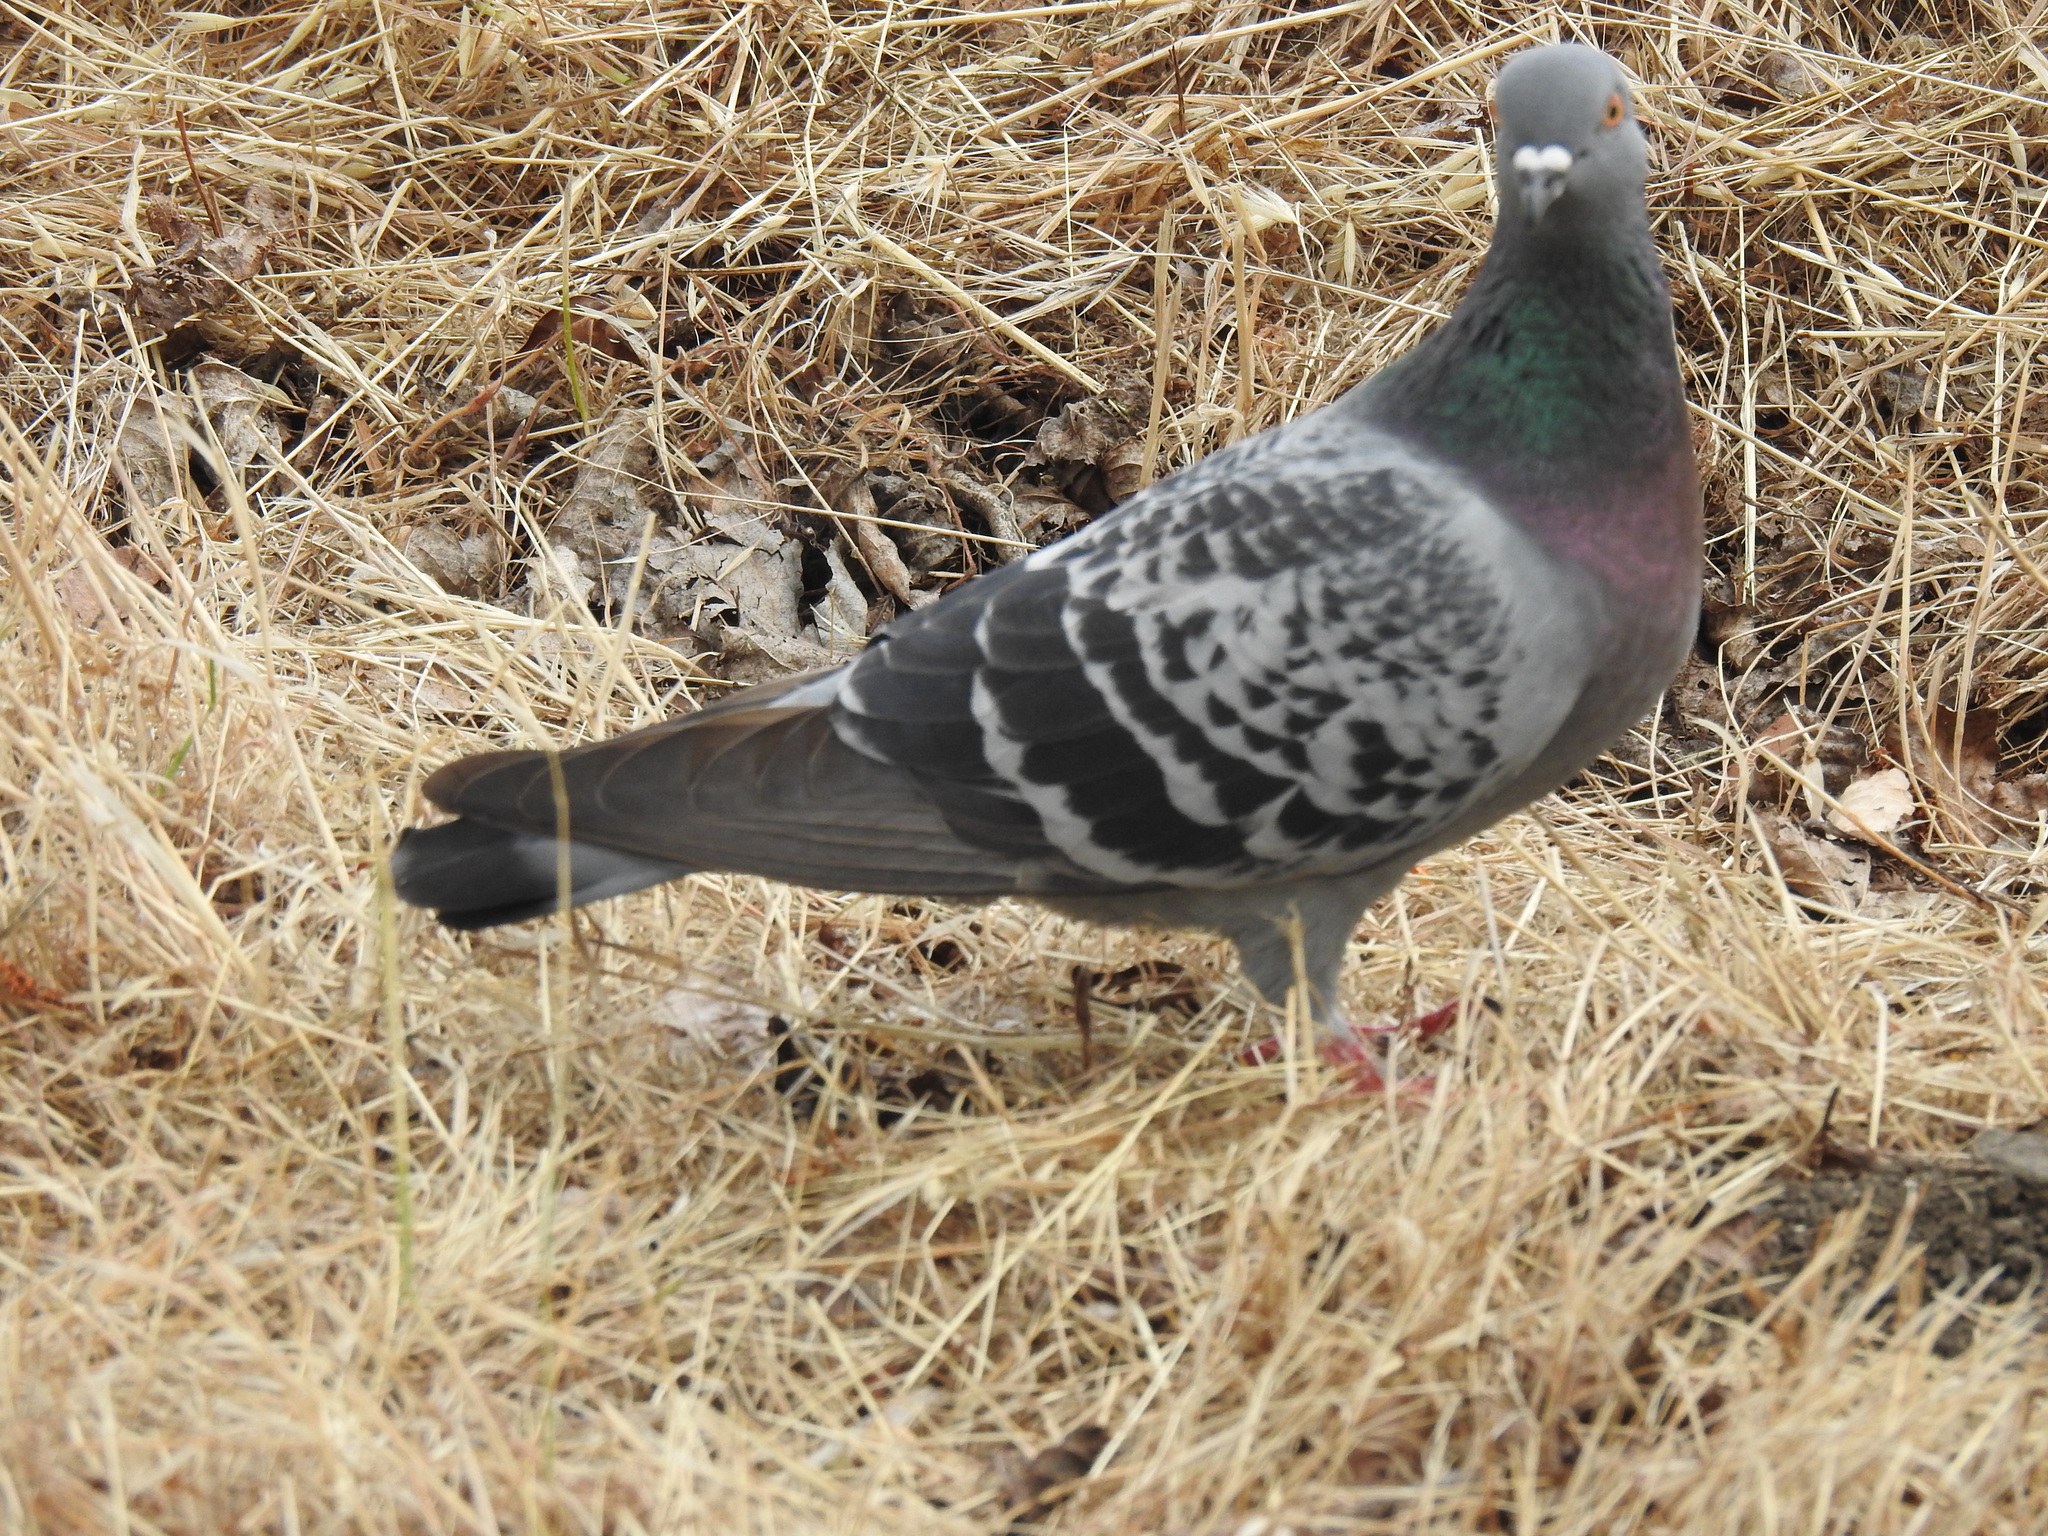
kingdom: Animalia
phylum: Chordata
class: Aves
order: Columbiformes
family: Columbidae
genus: Columba
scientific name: Columba livia
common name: Rock pigeon
